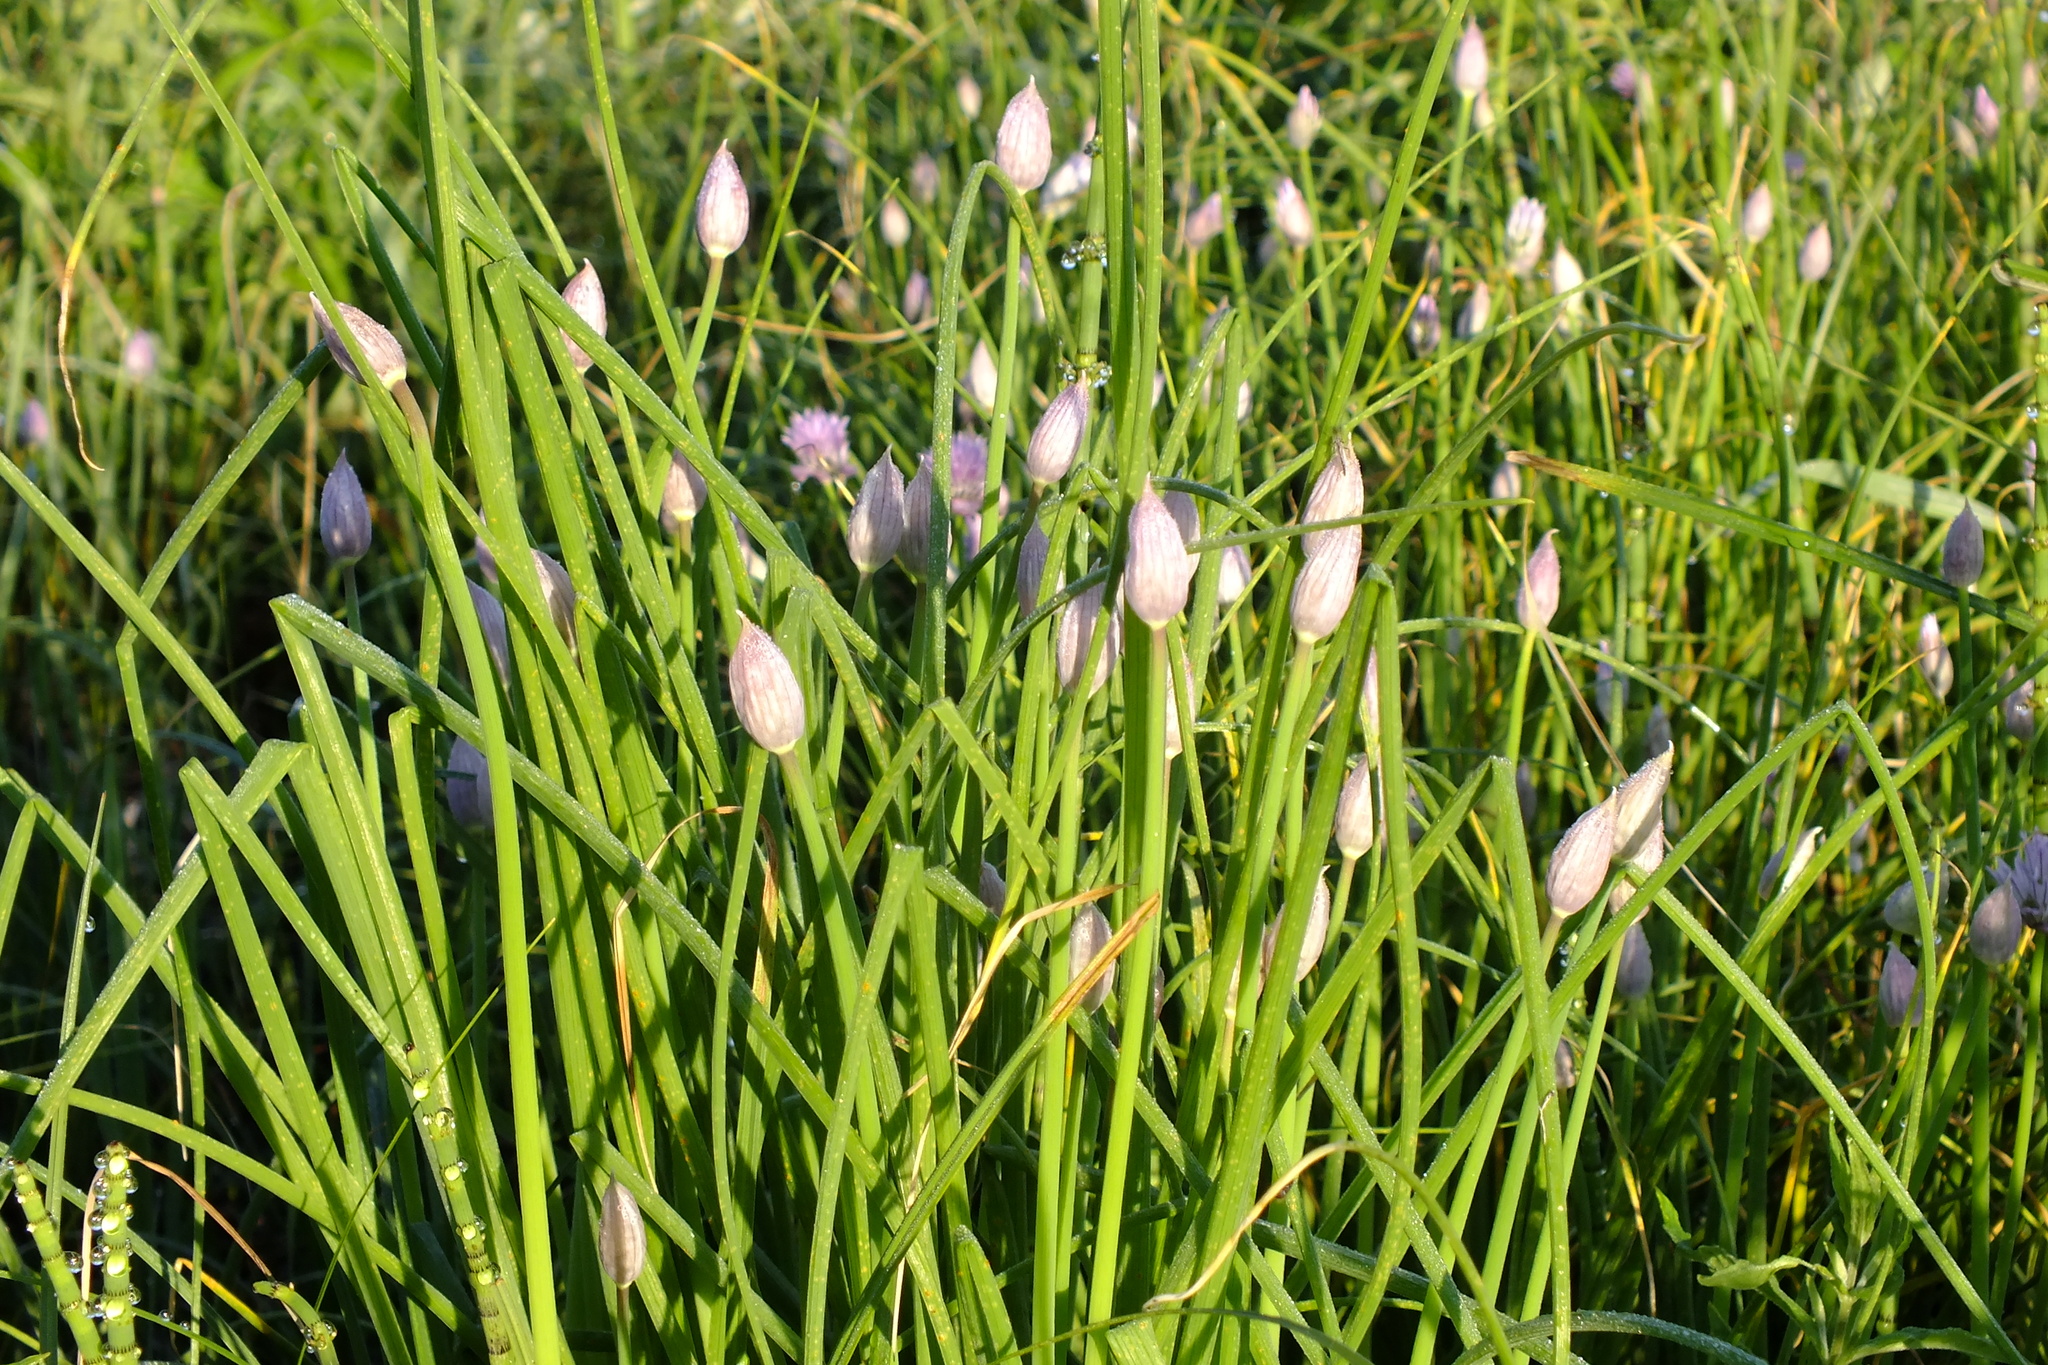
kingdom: Plantae
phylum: Tracheophyta
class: Liliopsida
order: Asparagales
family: Amaryllidaceae
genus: Allium
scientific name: Allium schoenoprasum
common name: Chives
